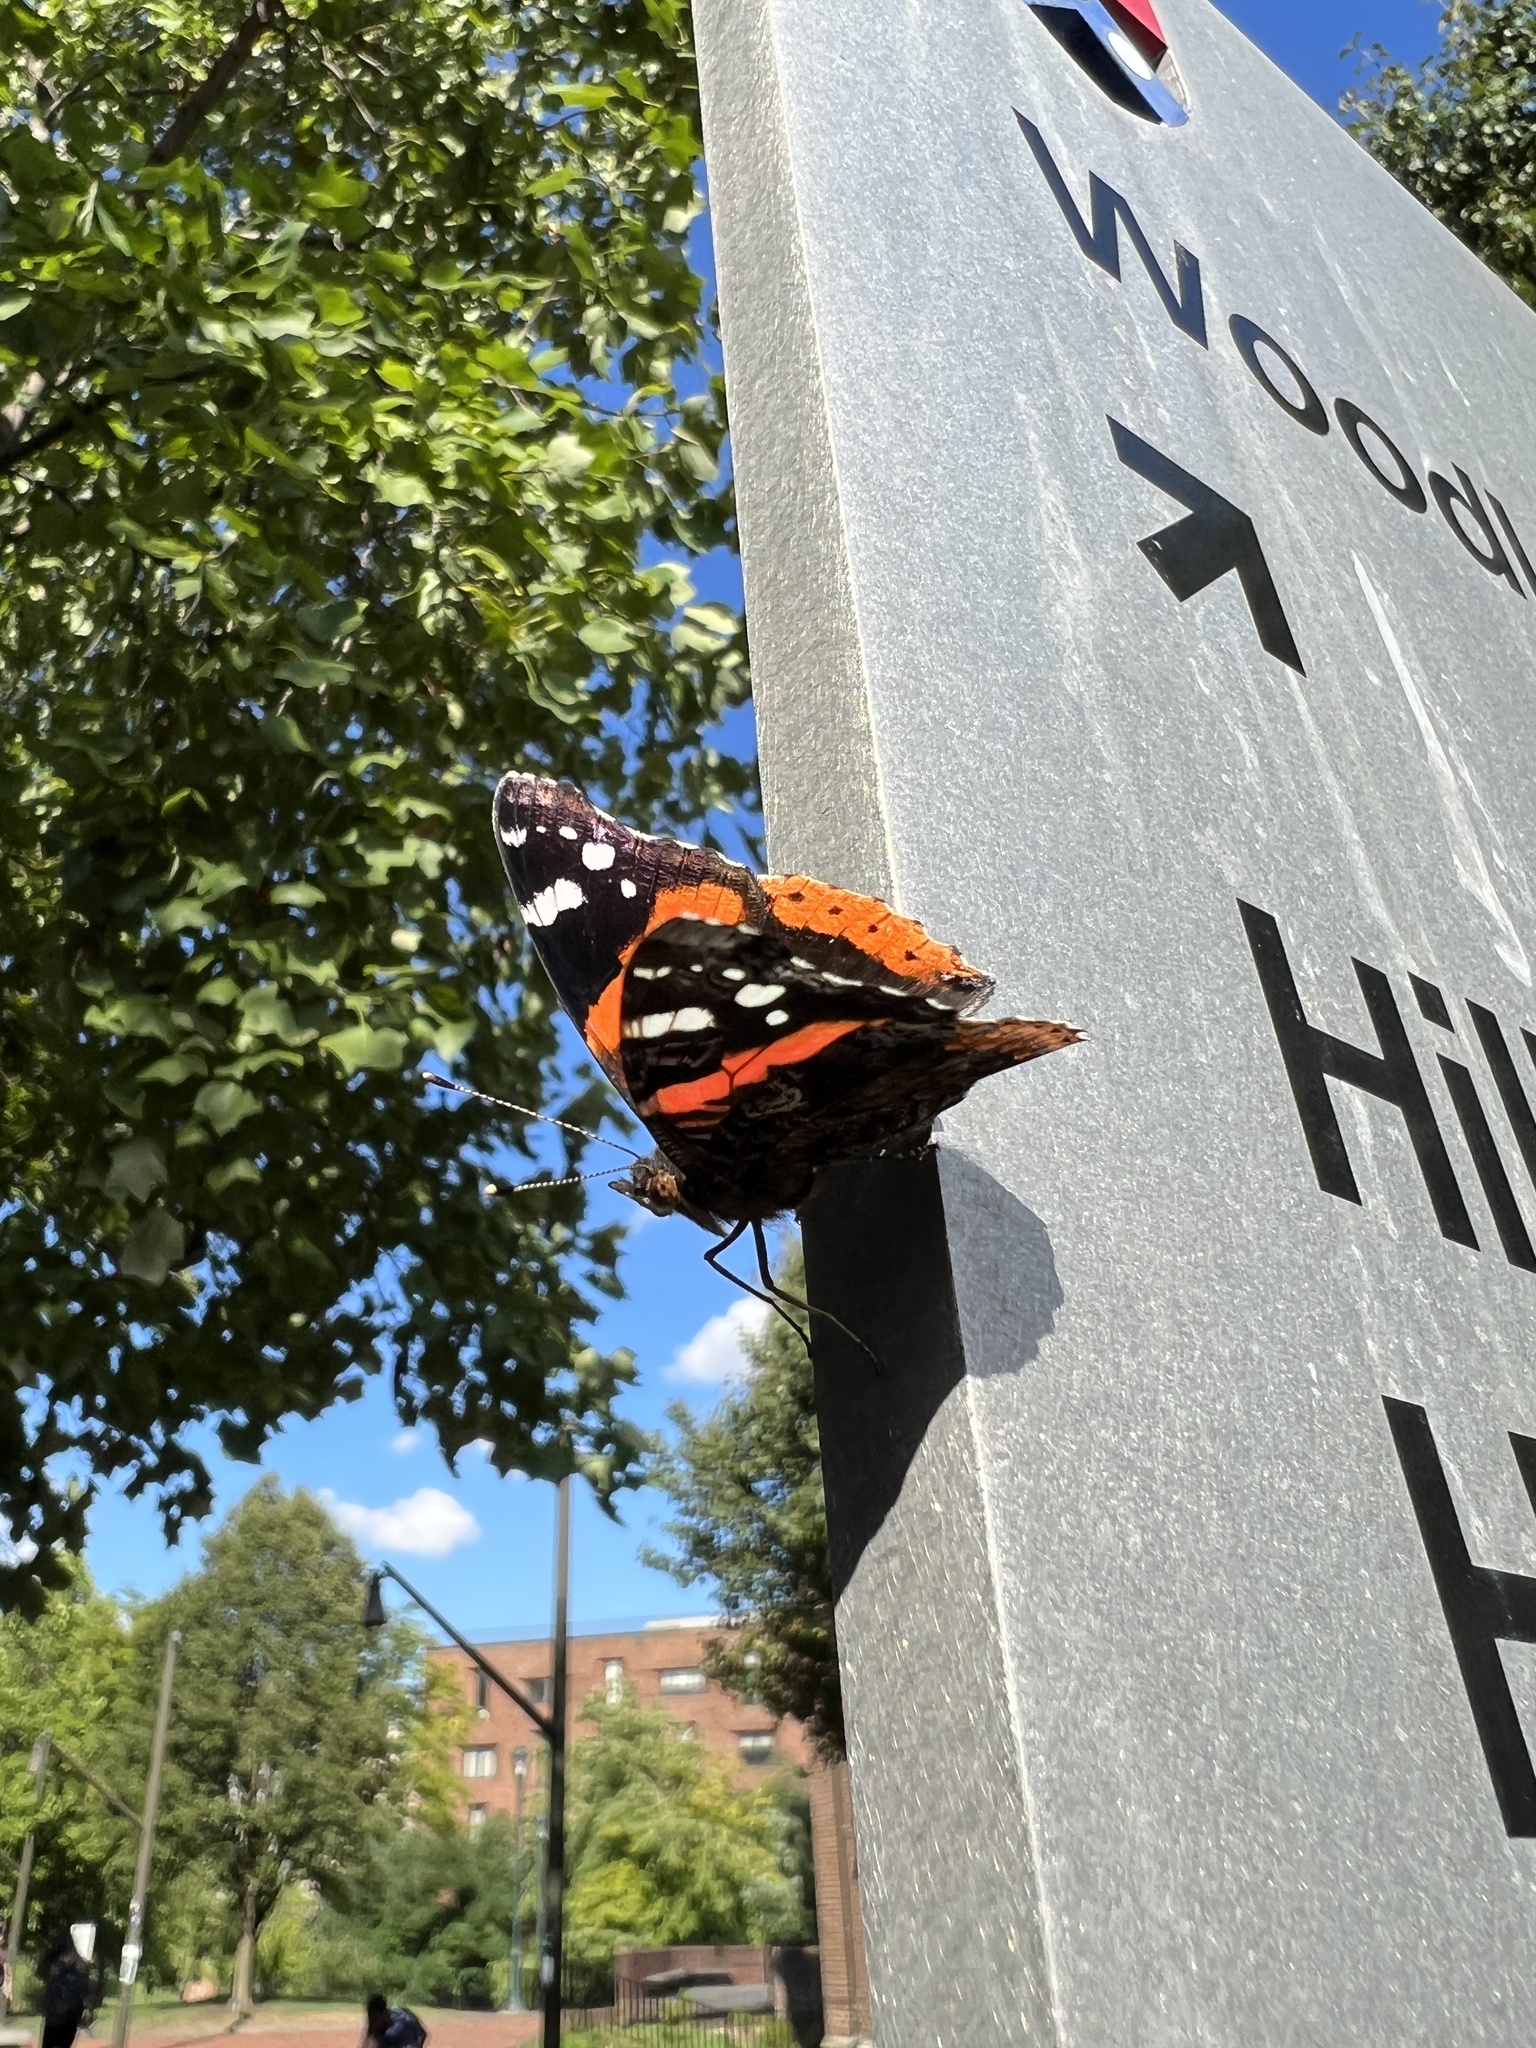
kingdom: Animalia
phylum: Arthropoda
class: Insecta
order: Lepidoptera
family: Nymphalidae
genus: Vanessa
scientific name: Vanessa atalanta
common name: Red admiral
